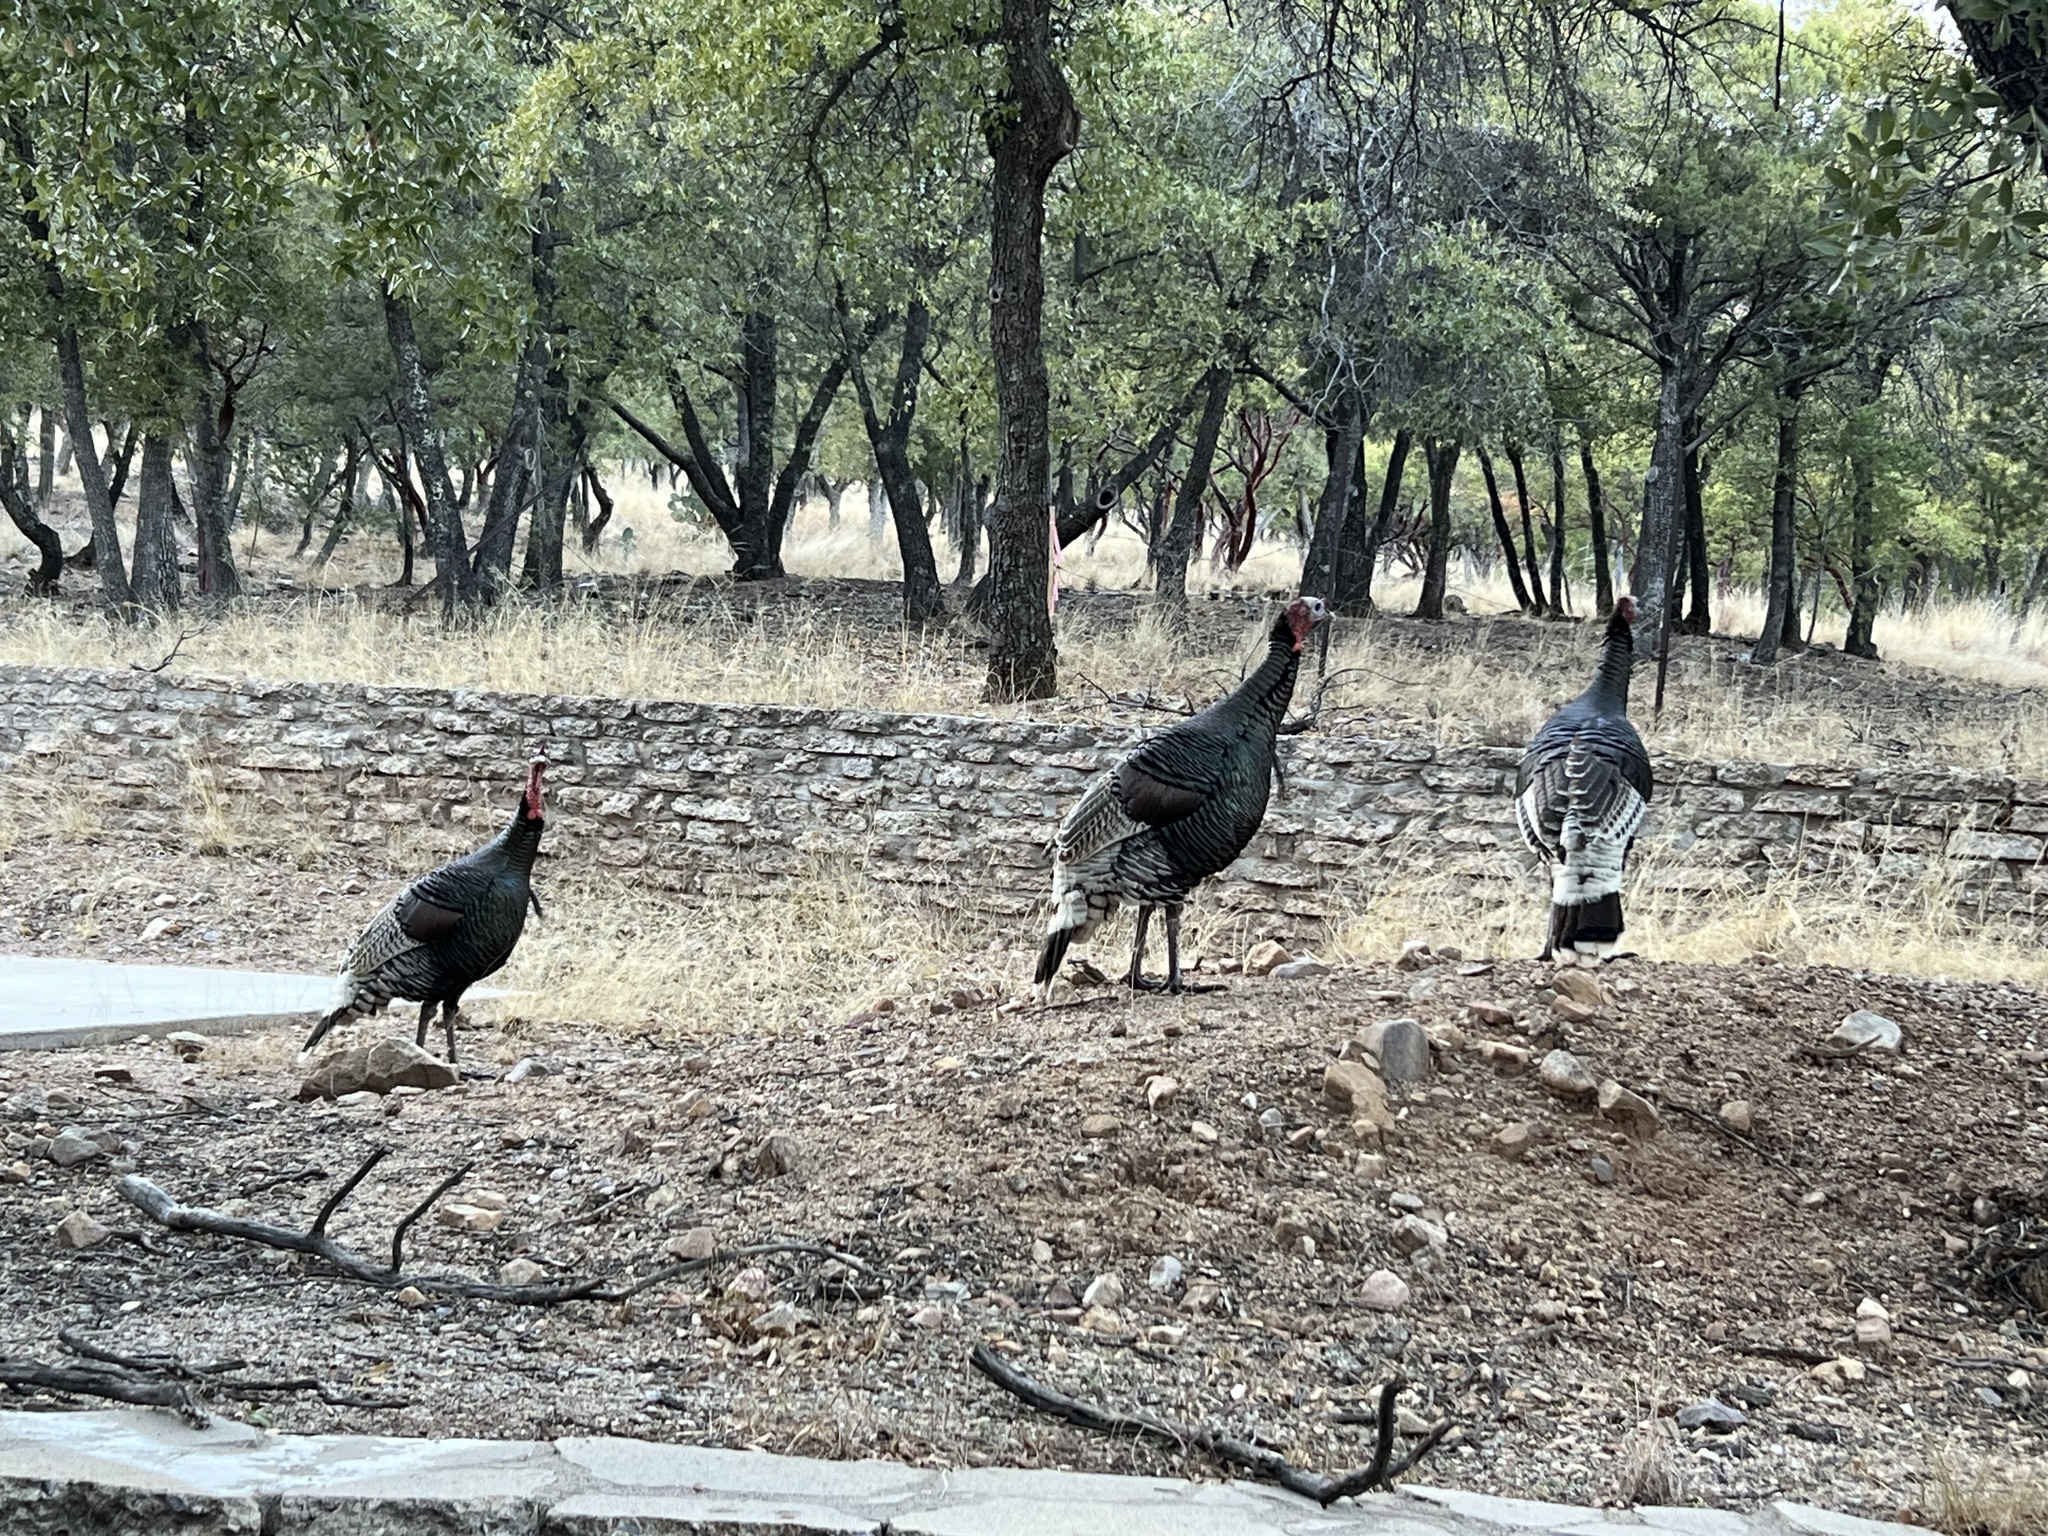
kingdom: Animalia
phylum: Chordata
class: Aves
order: Galliformes
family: Phasianidae
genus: Meleagris
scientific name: Meleagris gallopavo
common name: Wild turkey
